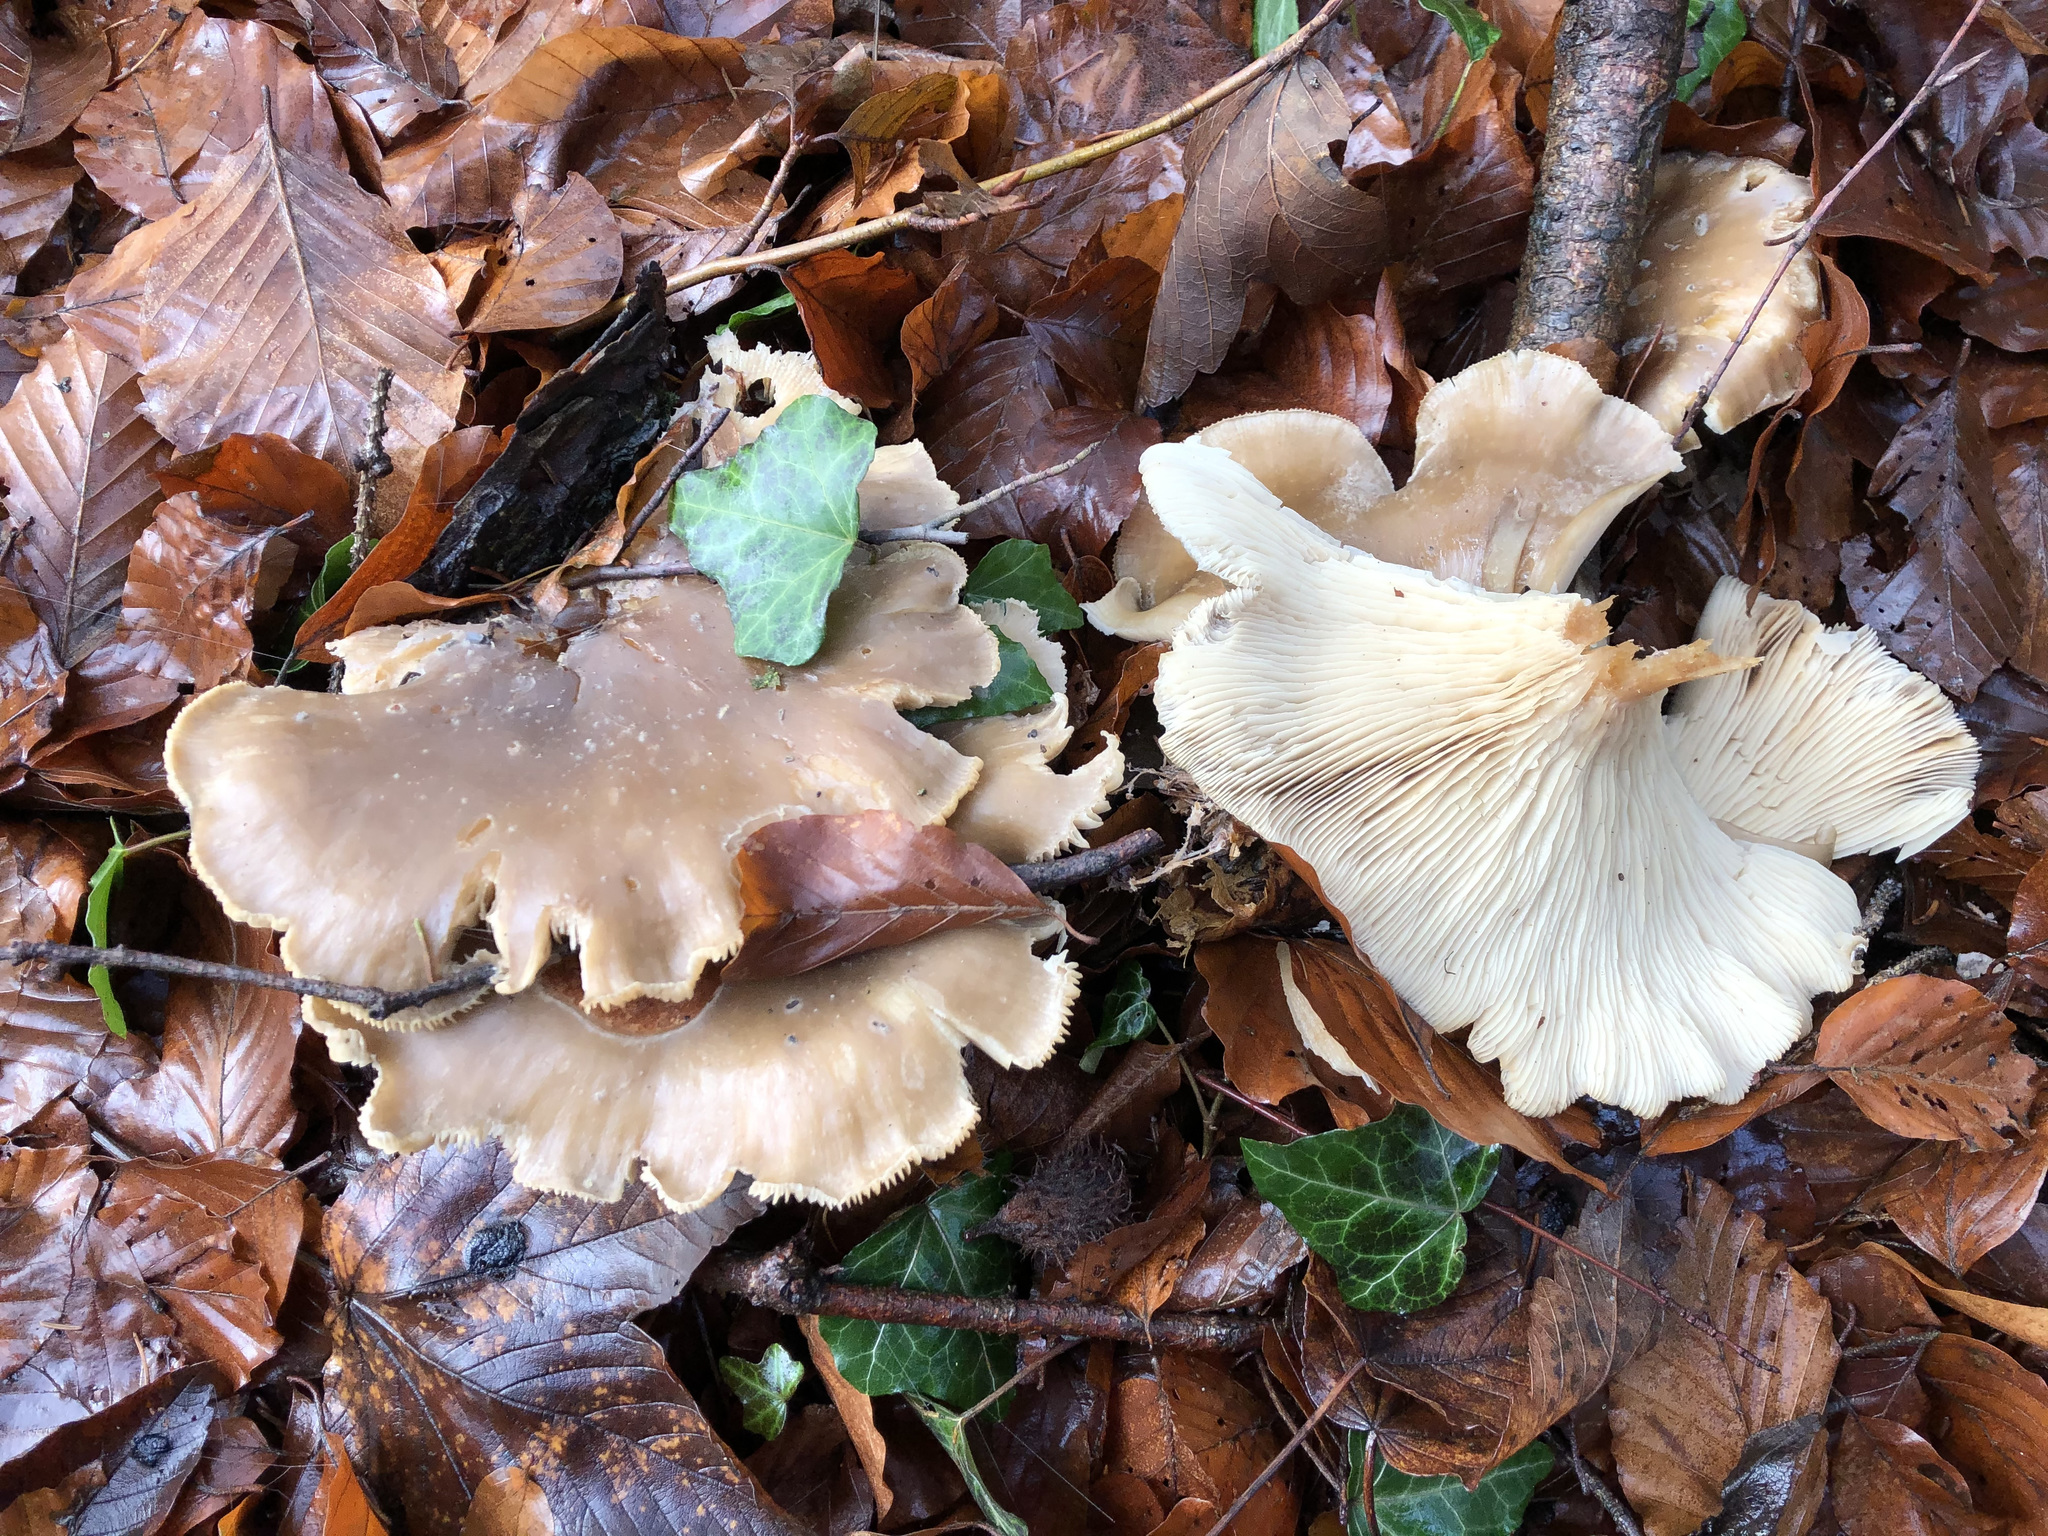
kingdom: Fungi
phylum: Basidiomycota
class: Agaricomycetes
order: Agaricales
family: Tricholomataceae
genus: Clitocybe
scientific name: Clitocybe nebularis
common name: Clouded agaric
